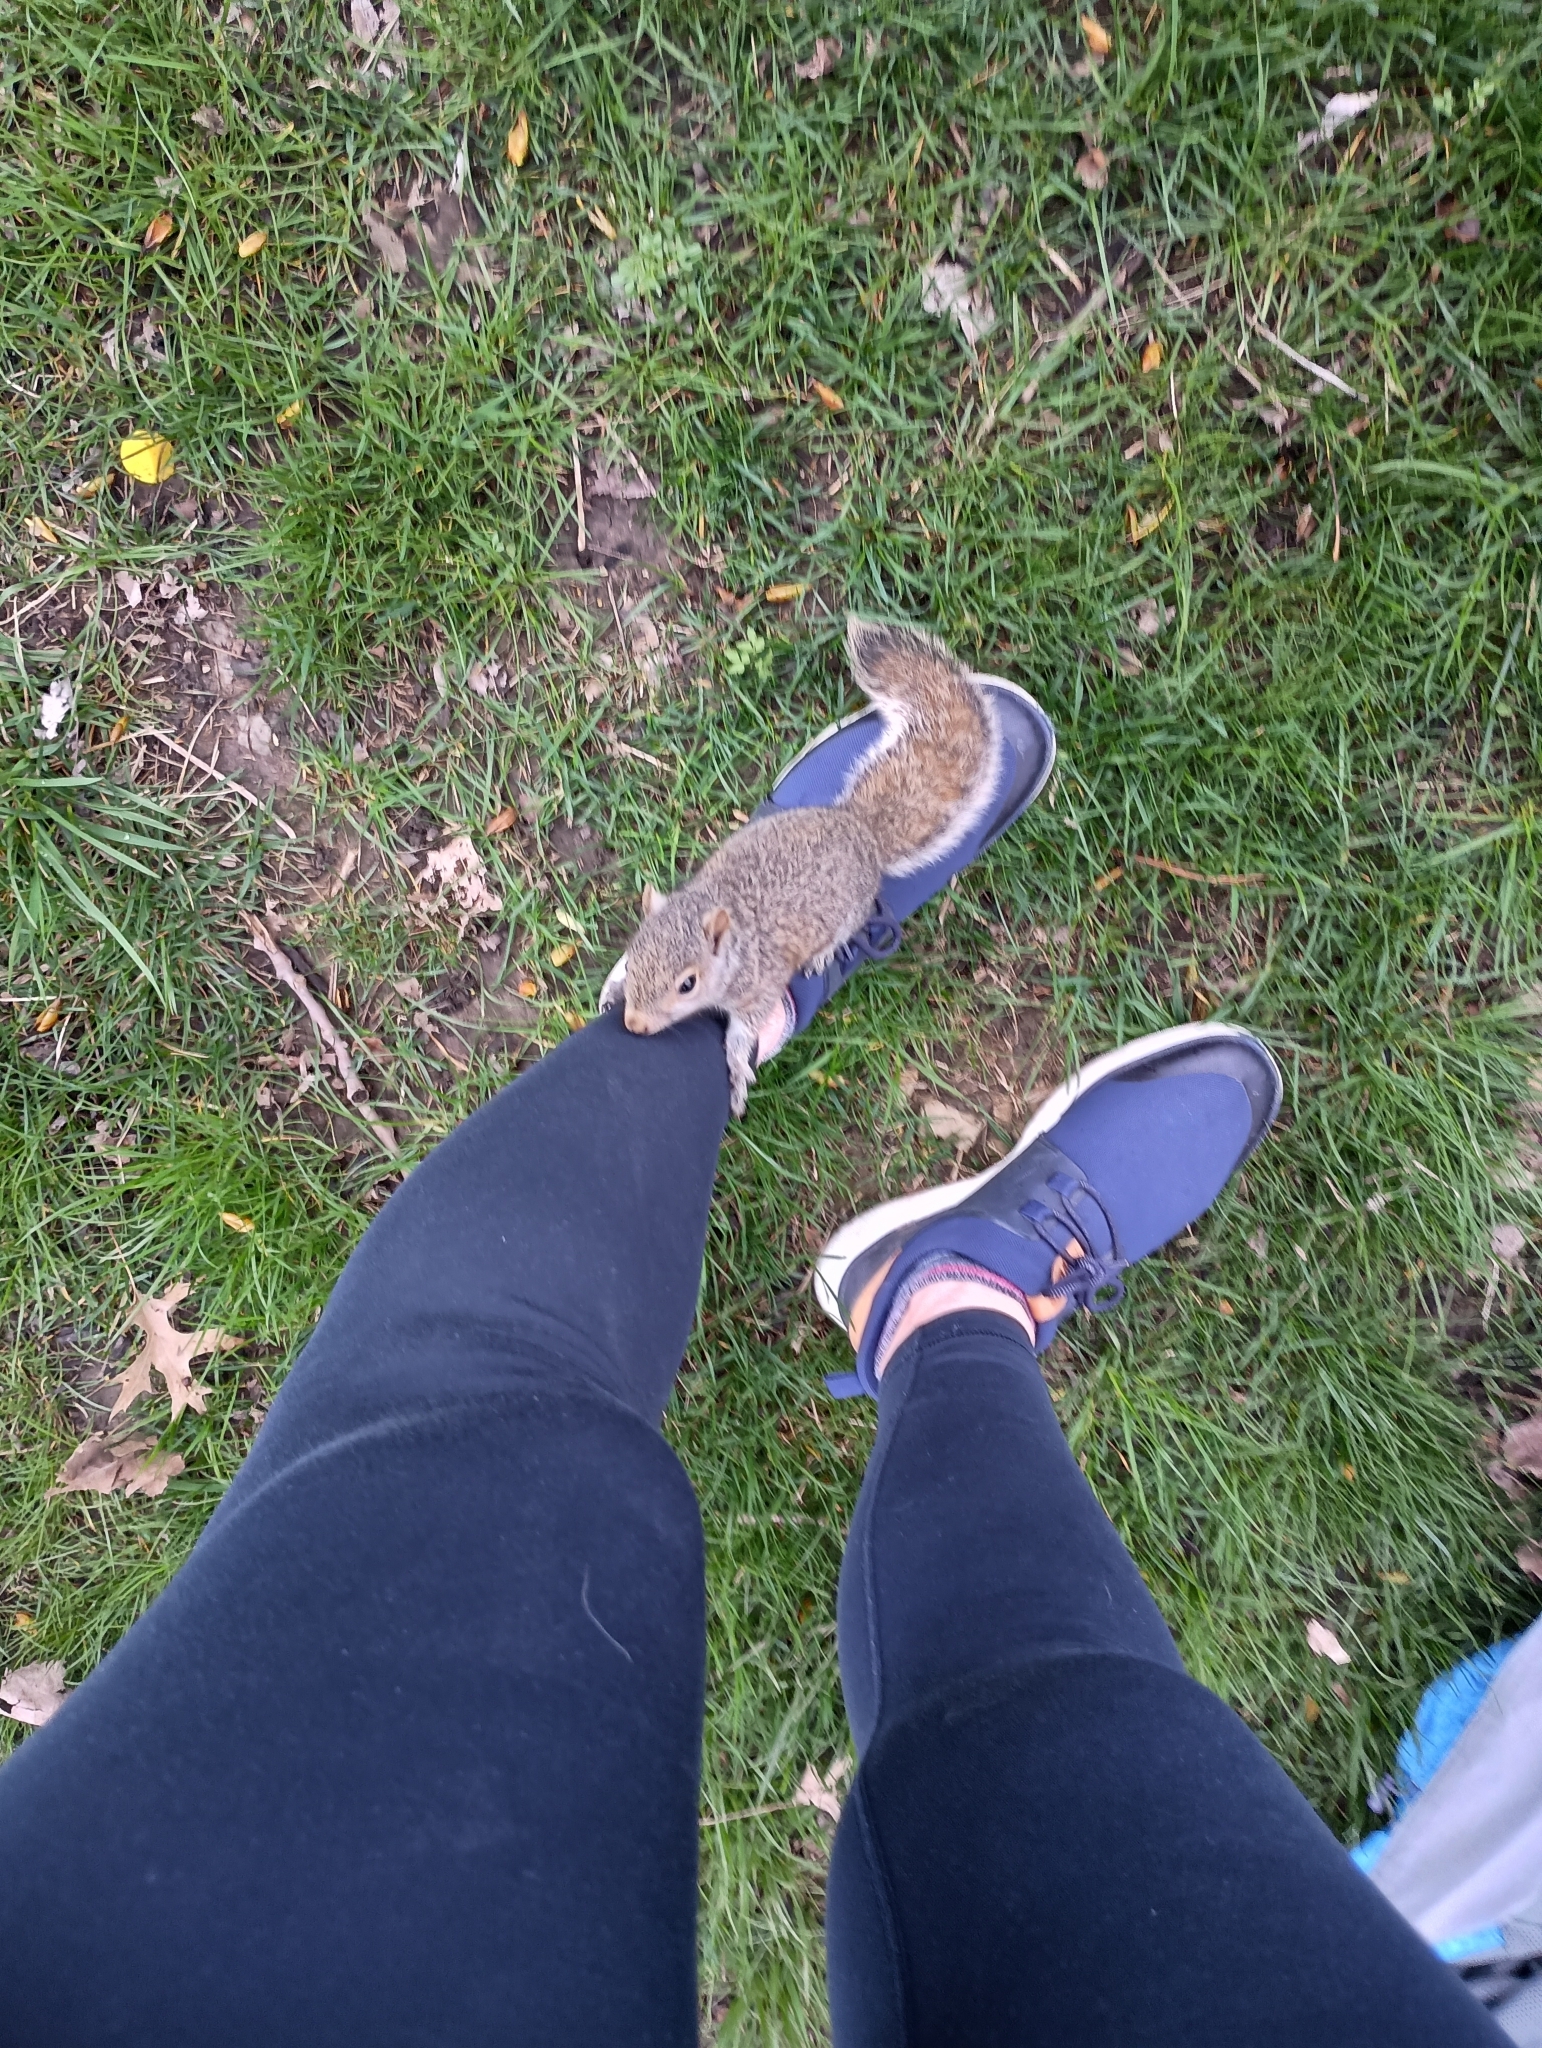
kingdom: Animalia
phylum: Chordata
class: Mammalia
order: Rodentia
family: Sciuridae
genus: Sciurus
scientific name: Sciurus carolinensis
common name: Eastern gray squirrel
